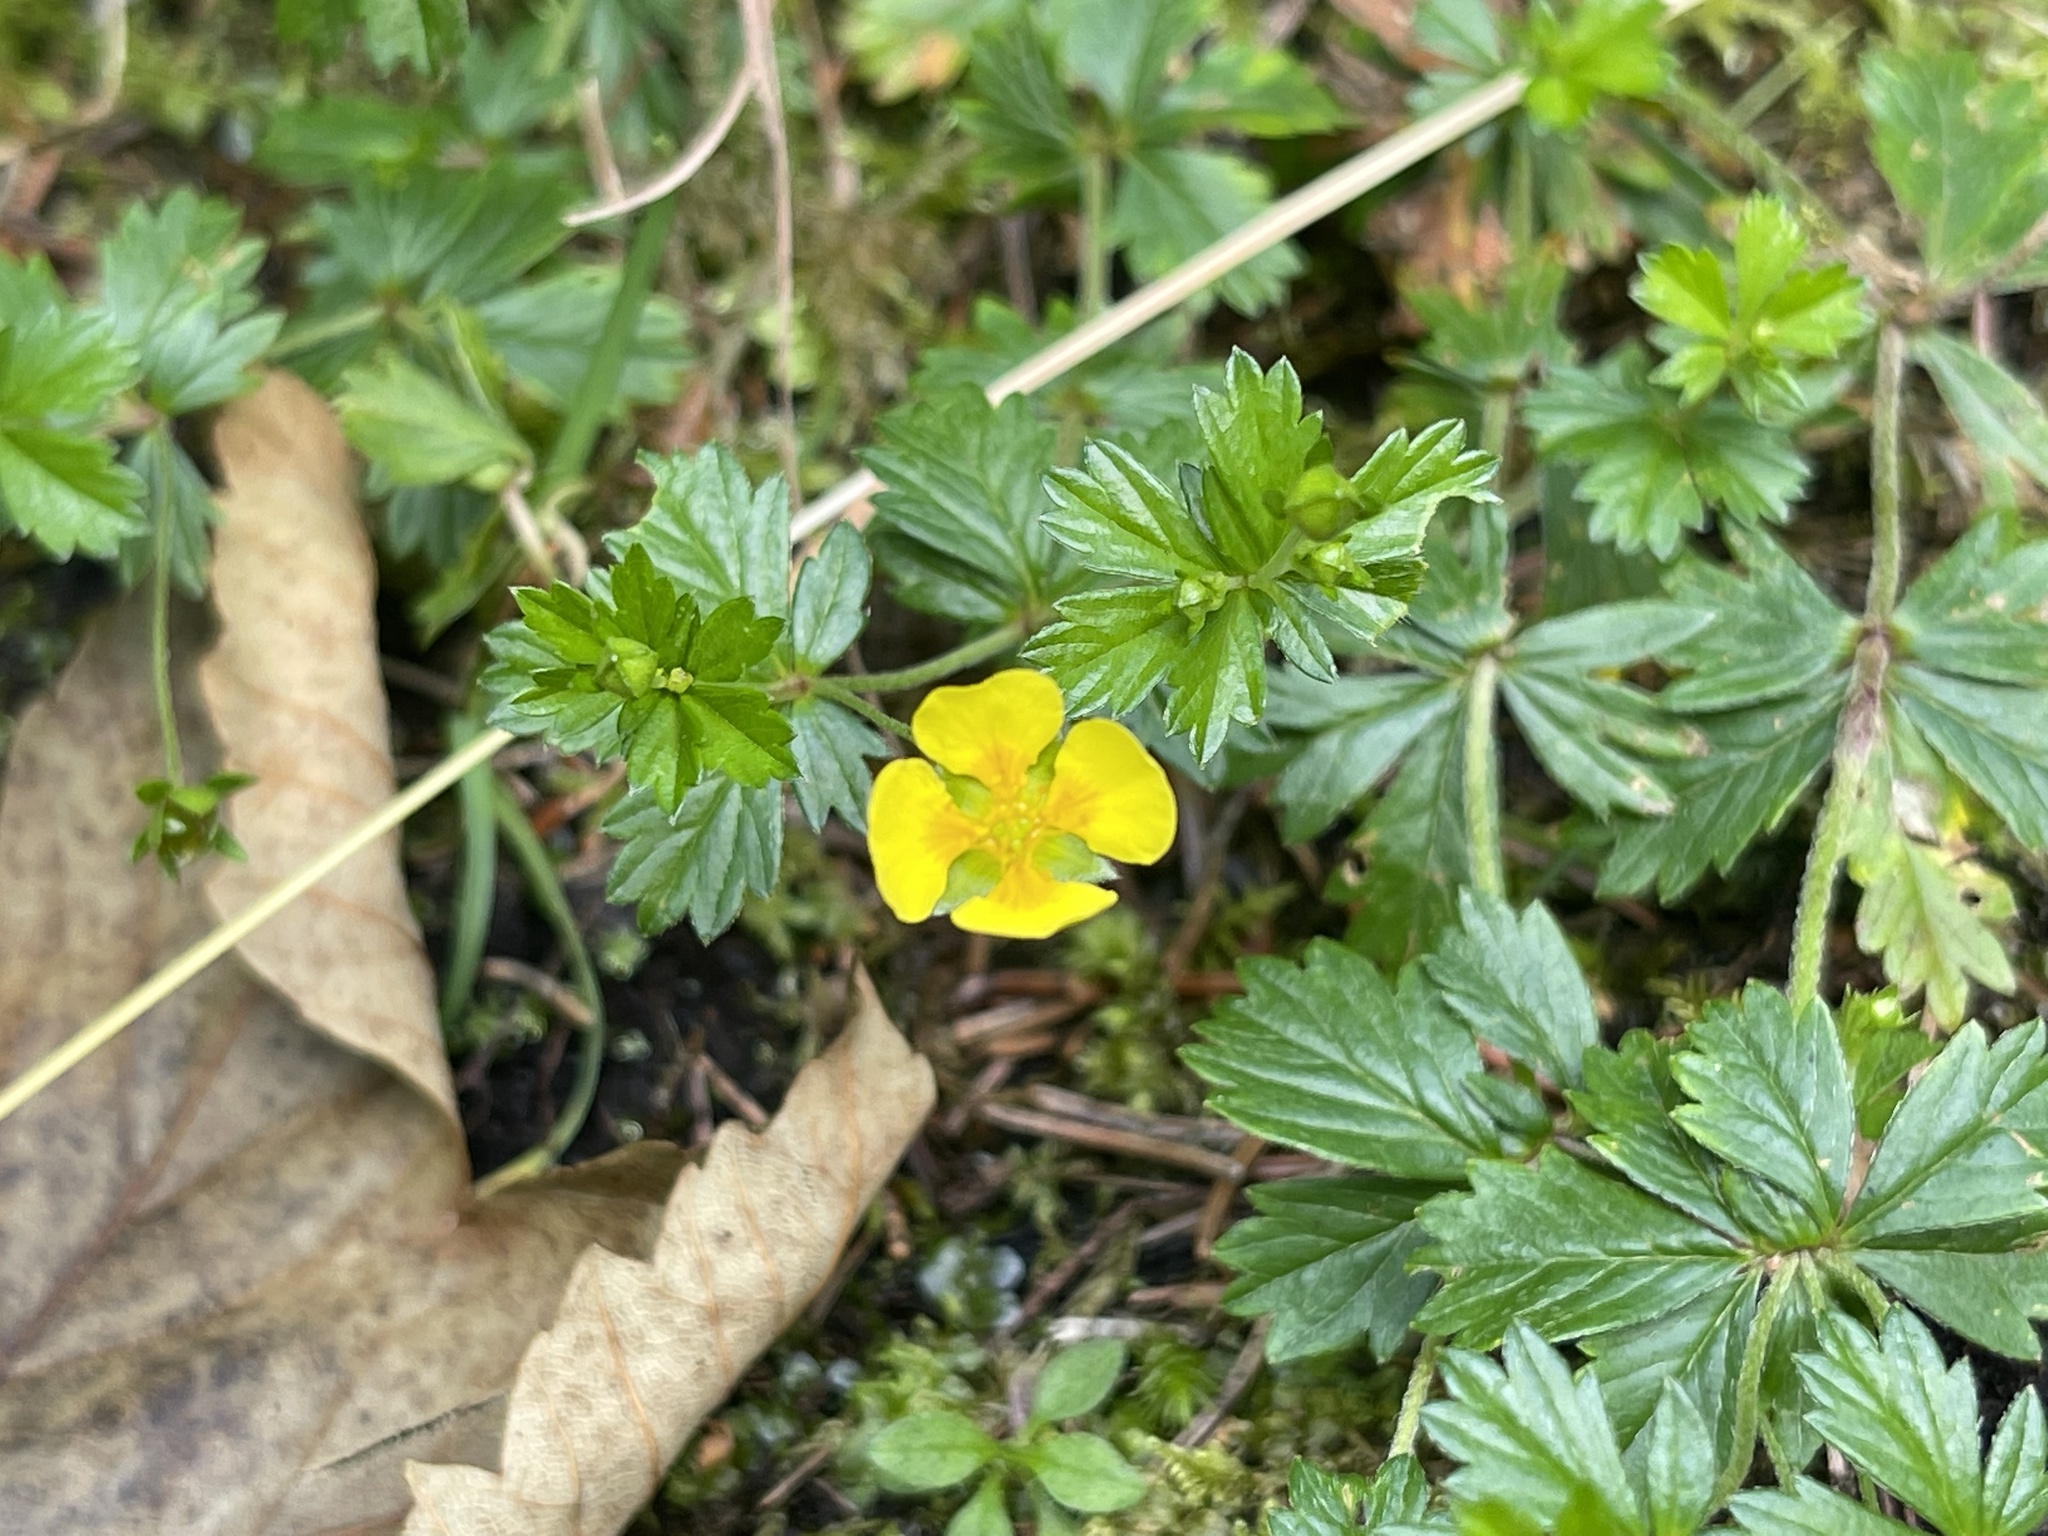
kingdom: Plantae
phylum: Tracheophyta
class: Magnoliopsida
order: Rosales
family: Rosaceae
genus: Potentilla
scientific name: Potentilla erecta
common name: Tormentil
